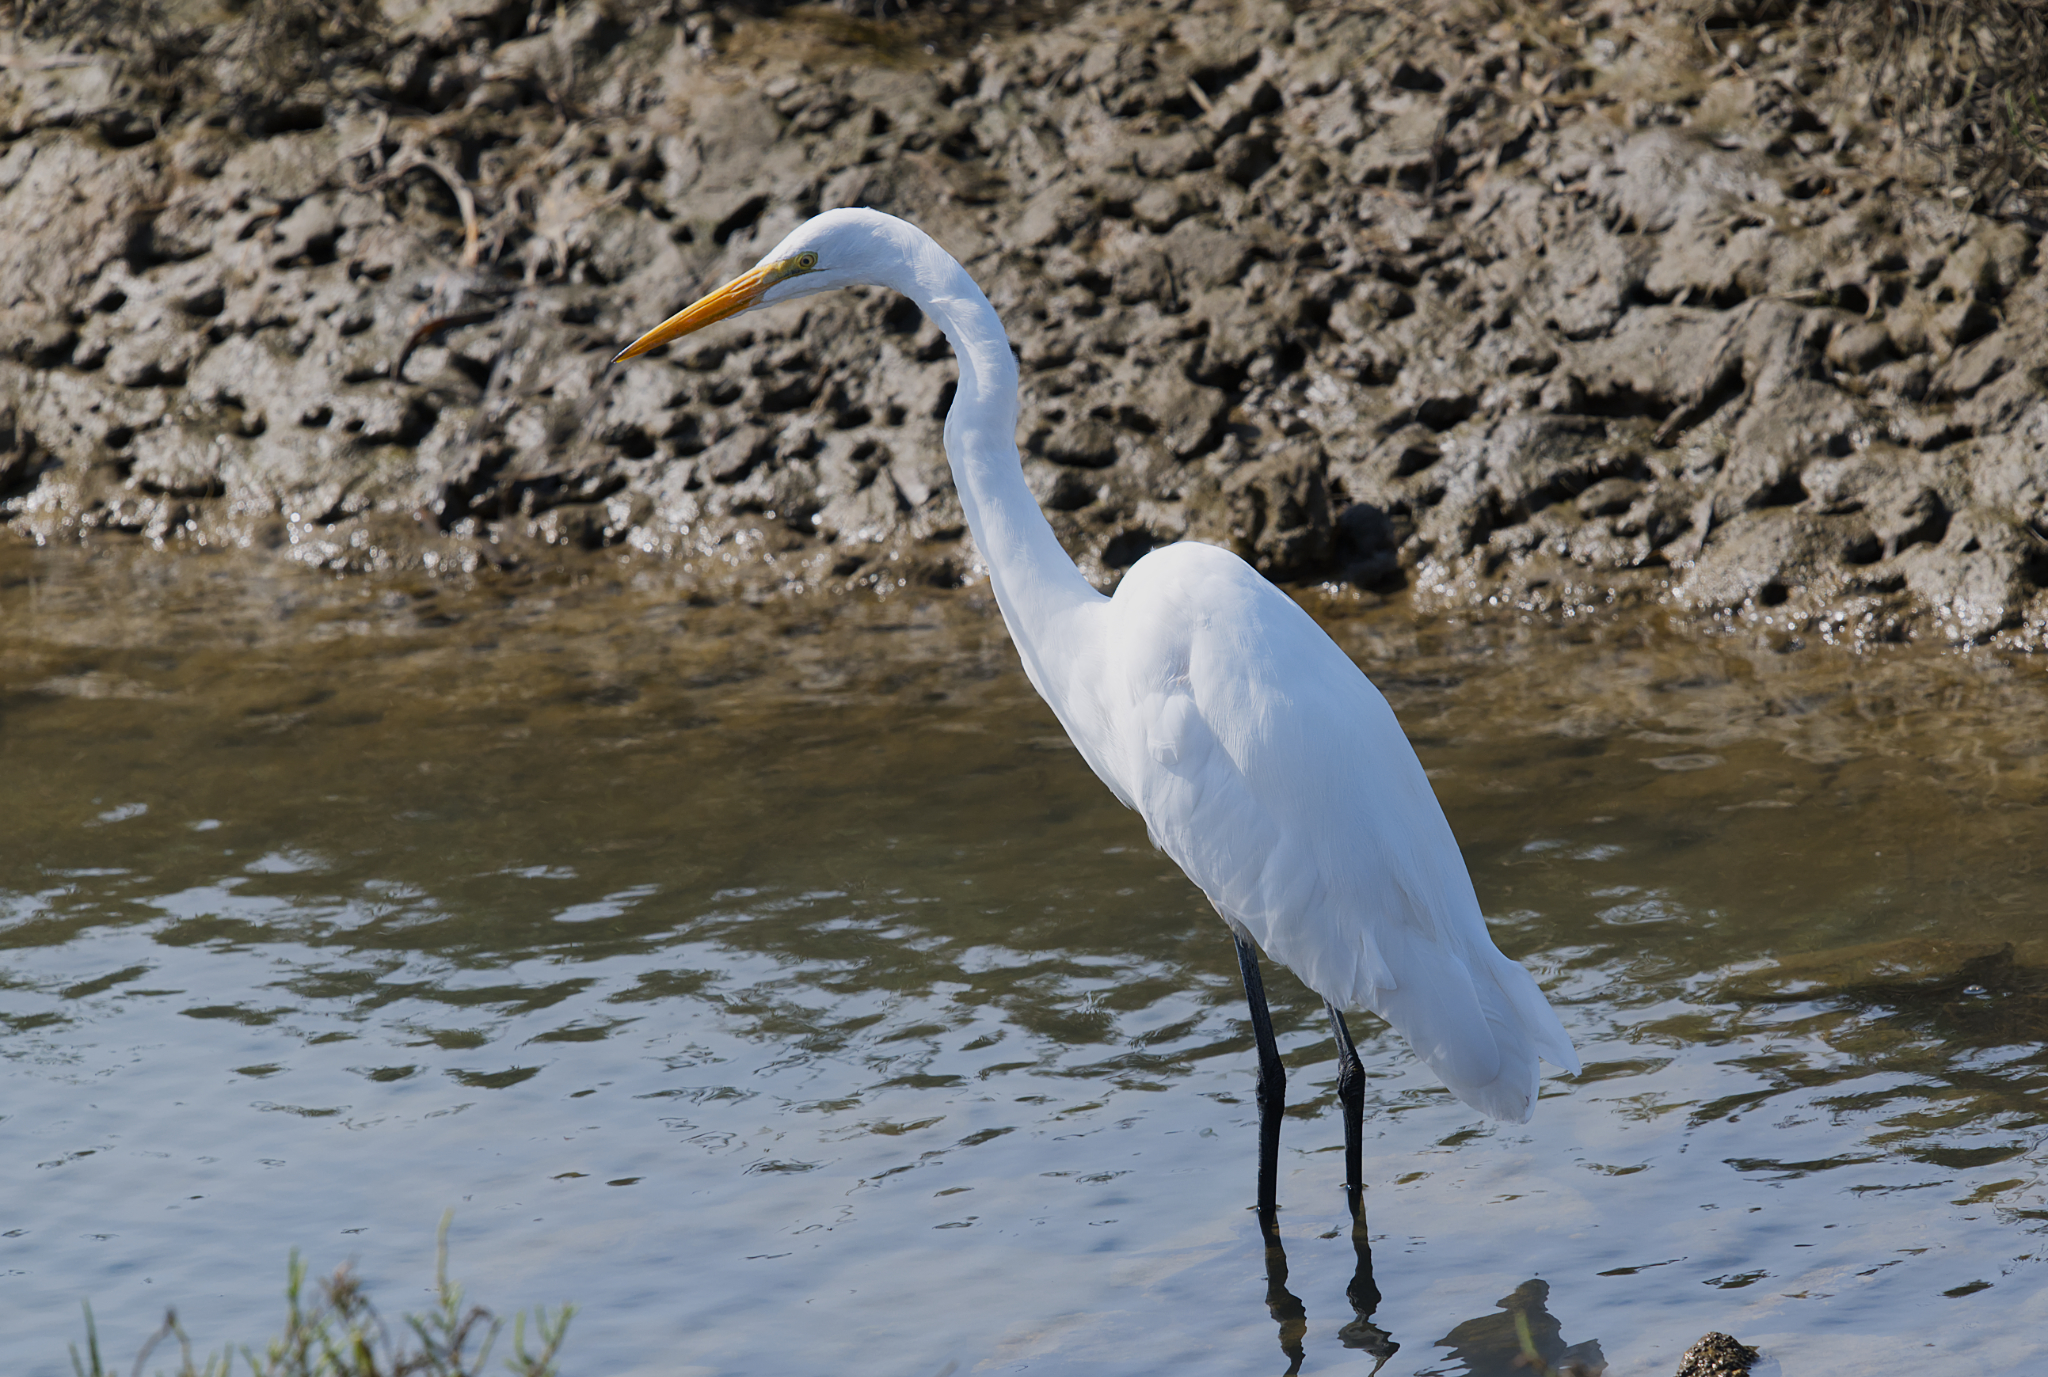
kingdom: Animalia
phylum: Chordata
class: Aves
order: Pelecaniformes
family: Ardeidae
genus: Ardea
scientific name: Ardea alba
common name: Great egret
